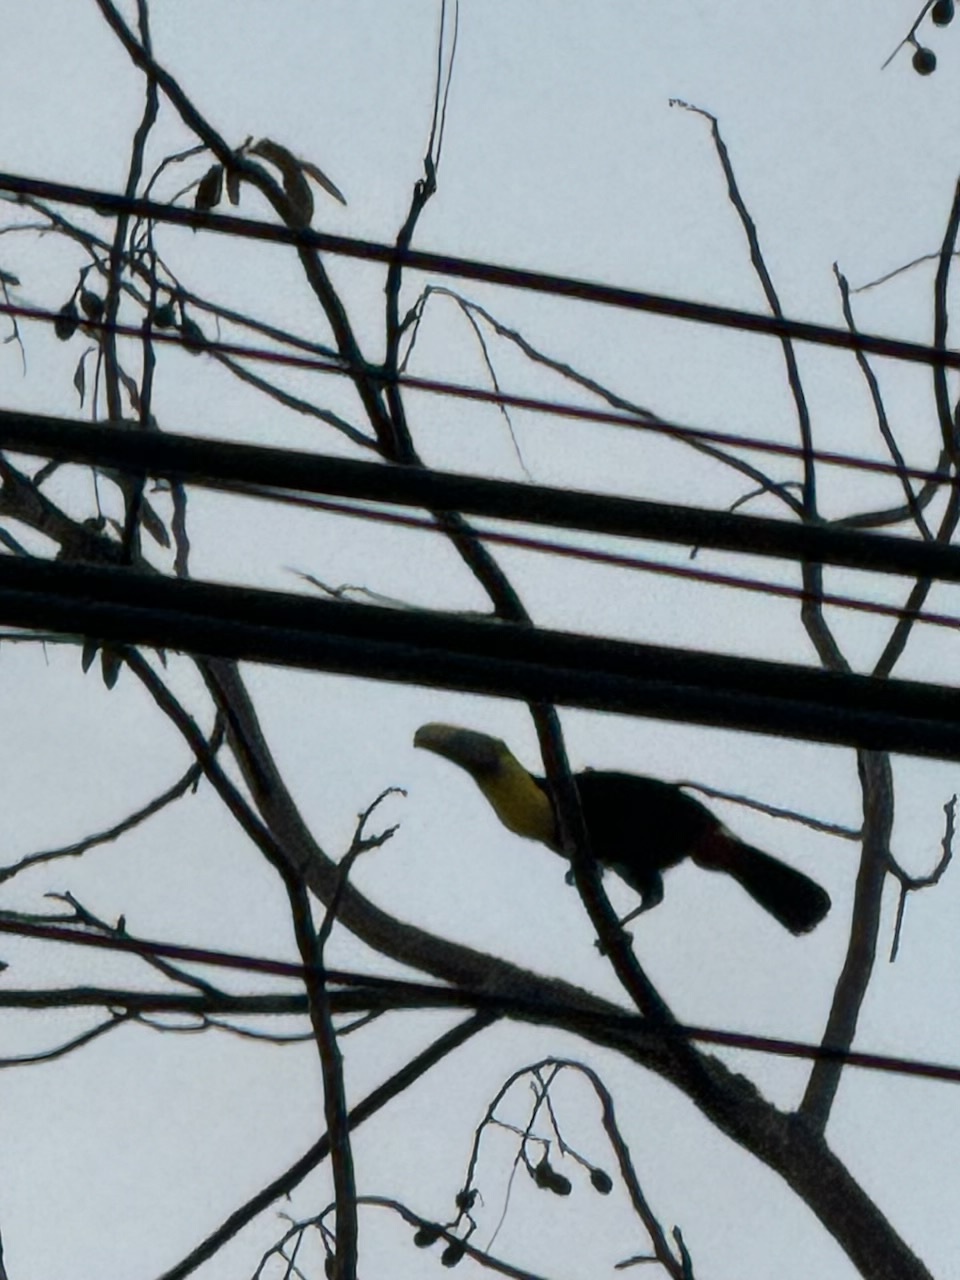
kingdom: Animalia
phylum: Chordata
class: Aves
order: Piciformes
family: Ramphastidae
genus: Ramphastos
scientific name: Ramphastos ambiguus
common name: Yellow-throated toucan
